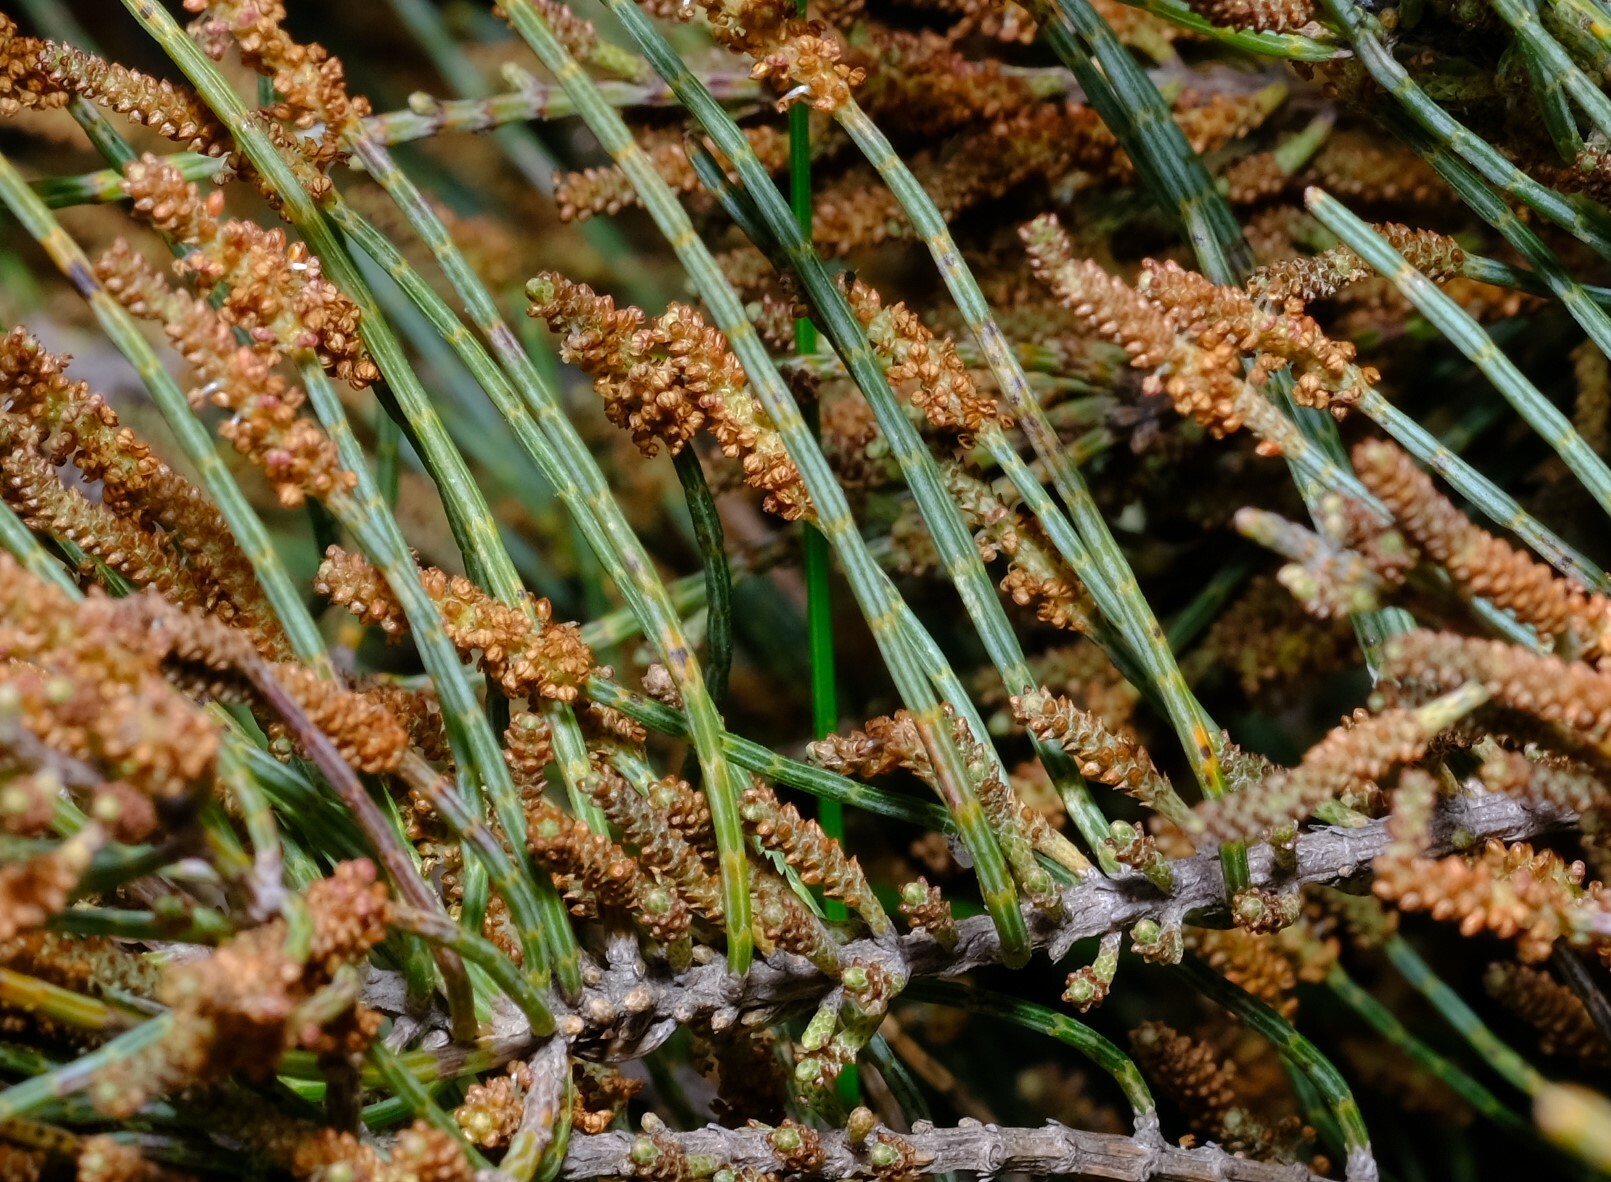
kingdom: Plantae
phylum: Tracheophyta
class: Magnoliopsida
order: Fagales
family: Casuarinaceae
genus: Allocasuarina
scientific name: Allocasuarina humilis
